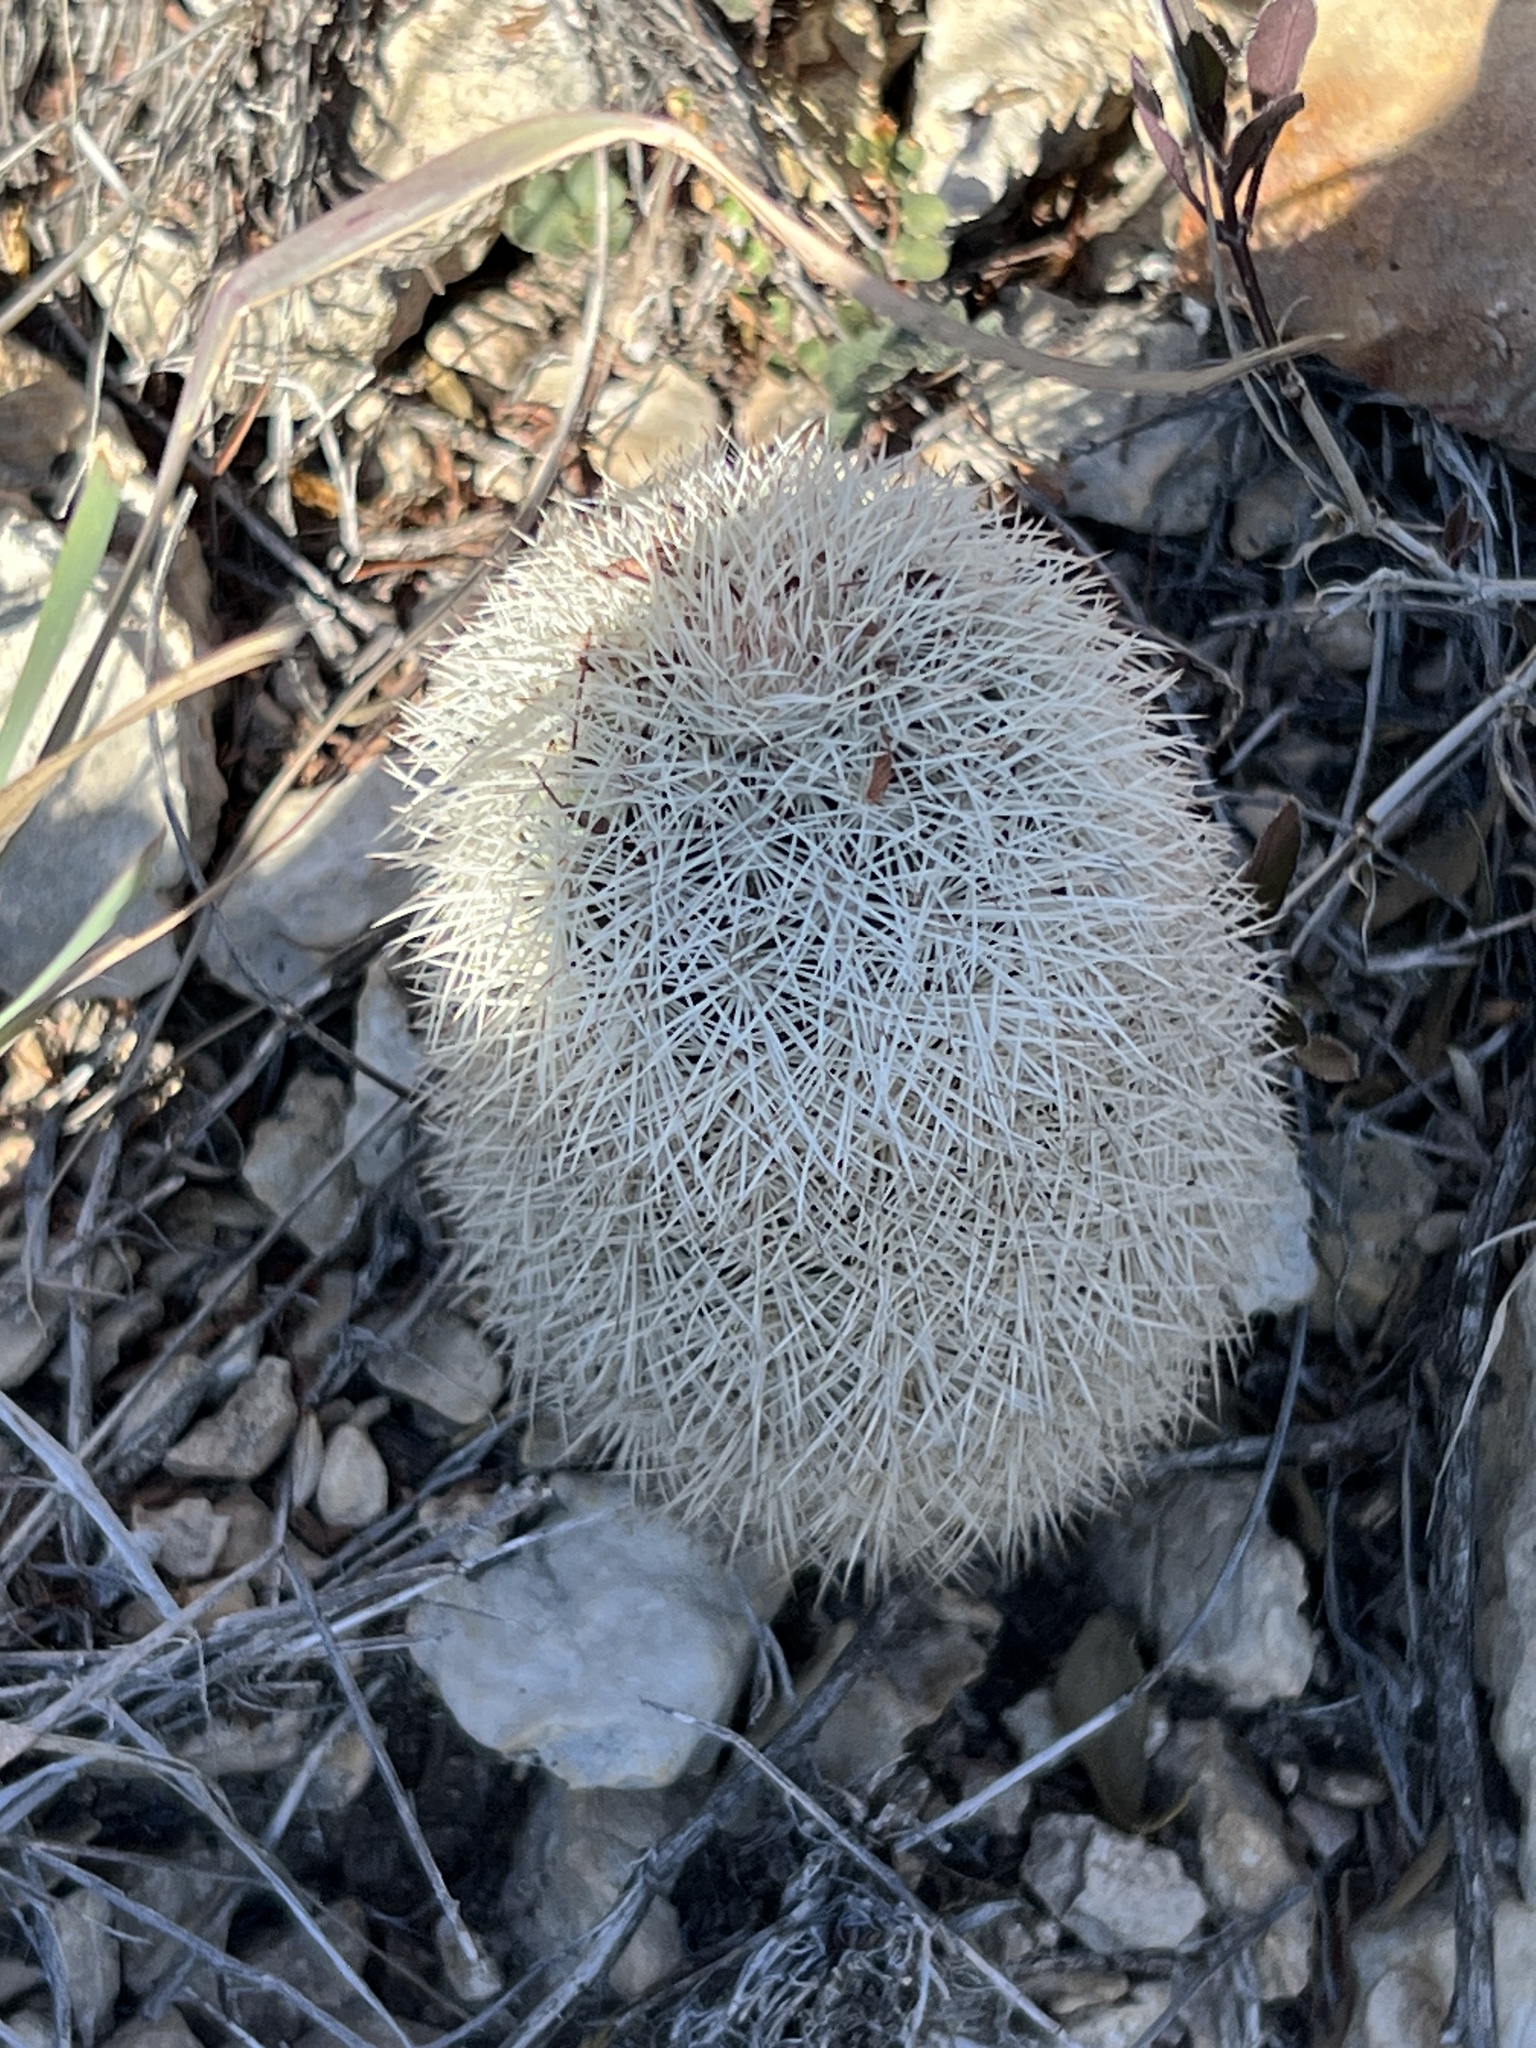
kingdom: Plantae
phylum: Tracheophyta
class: Magnoliopsida
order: Caryophyllales
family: Cactaceae
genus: Echinocereus
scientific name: Echinocereus dasyacanthus
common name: Spiny hedgehog cactus
